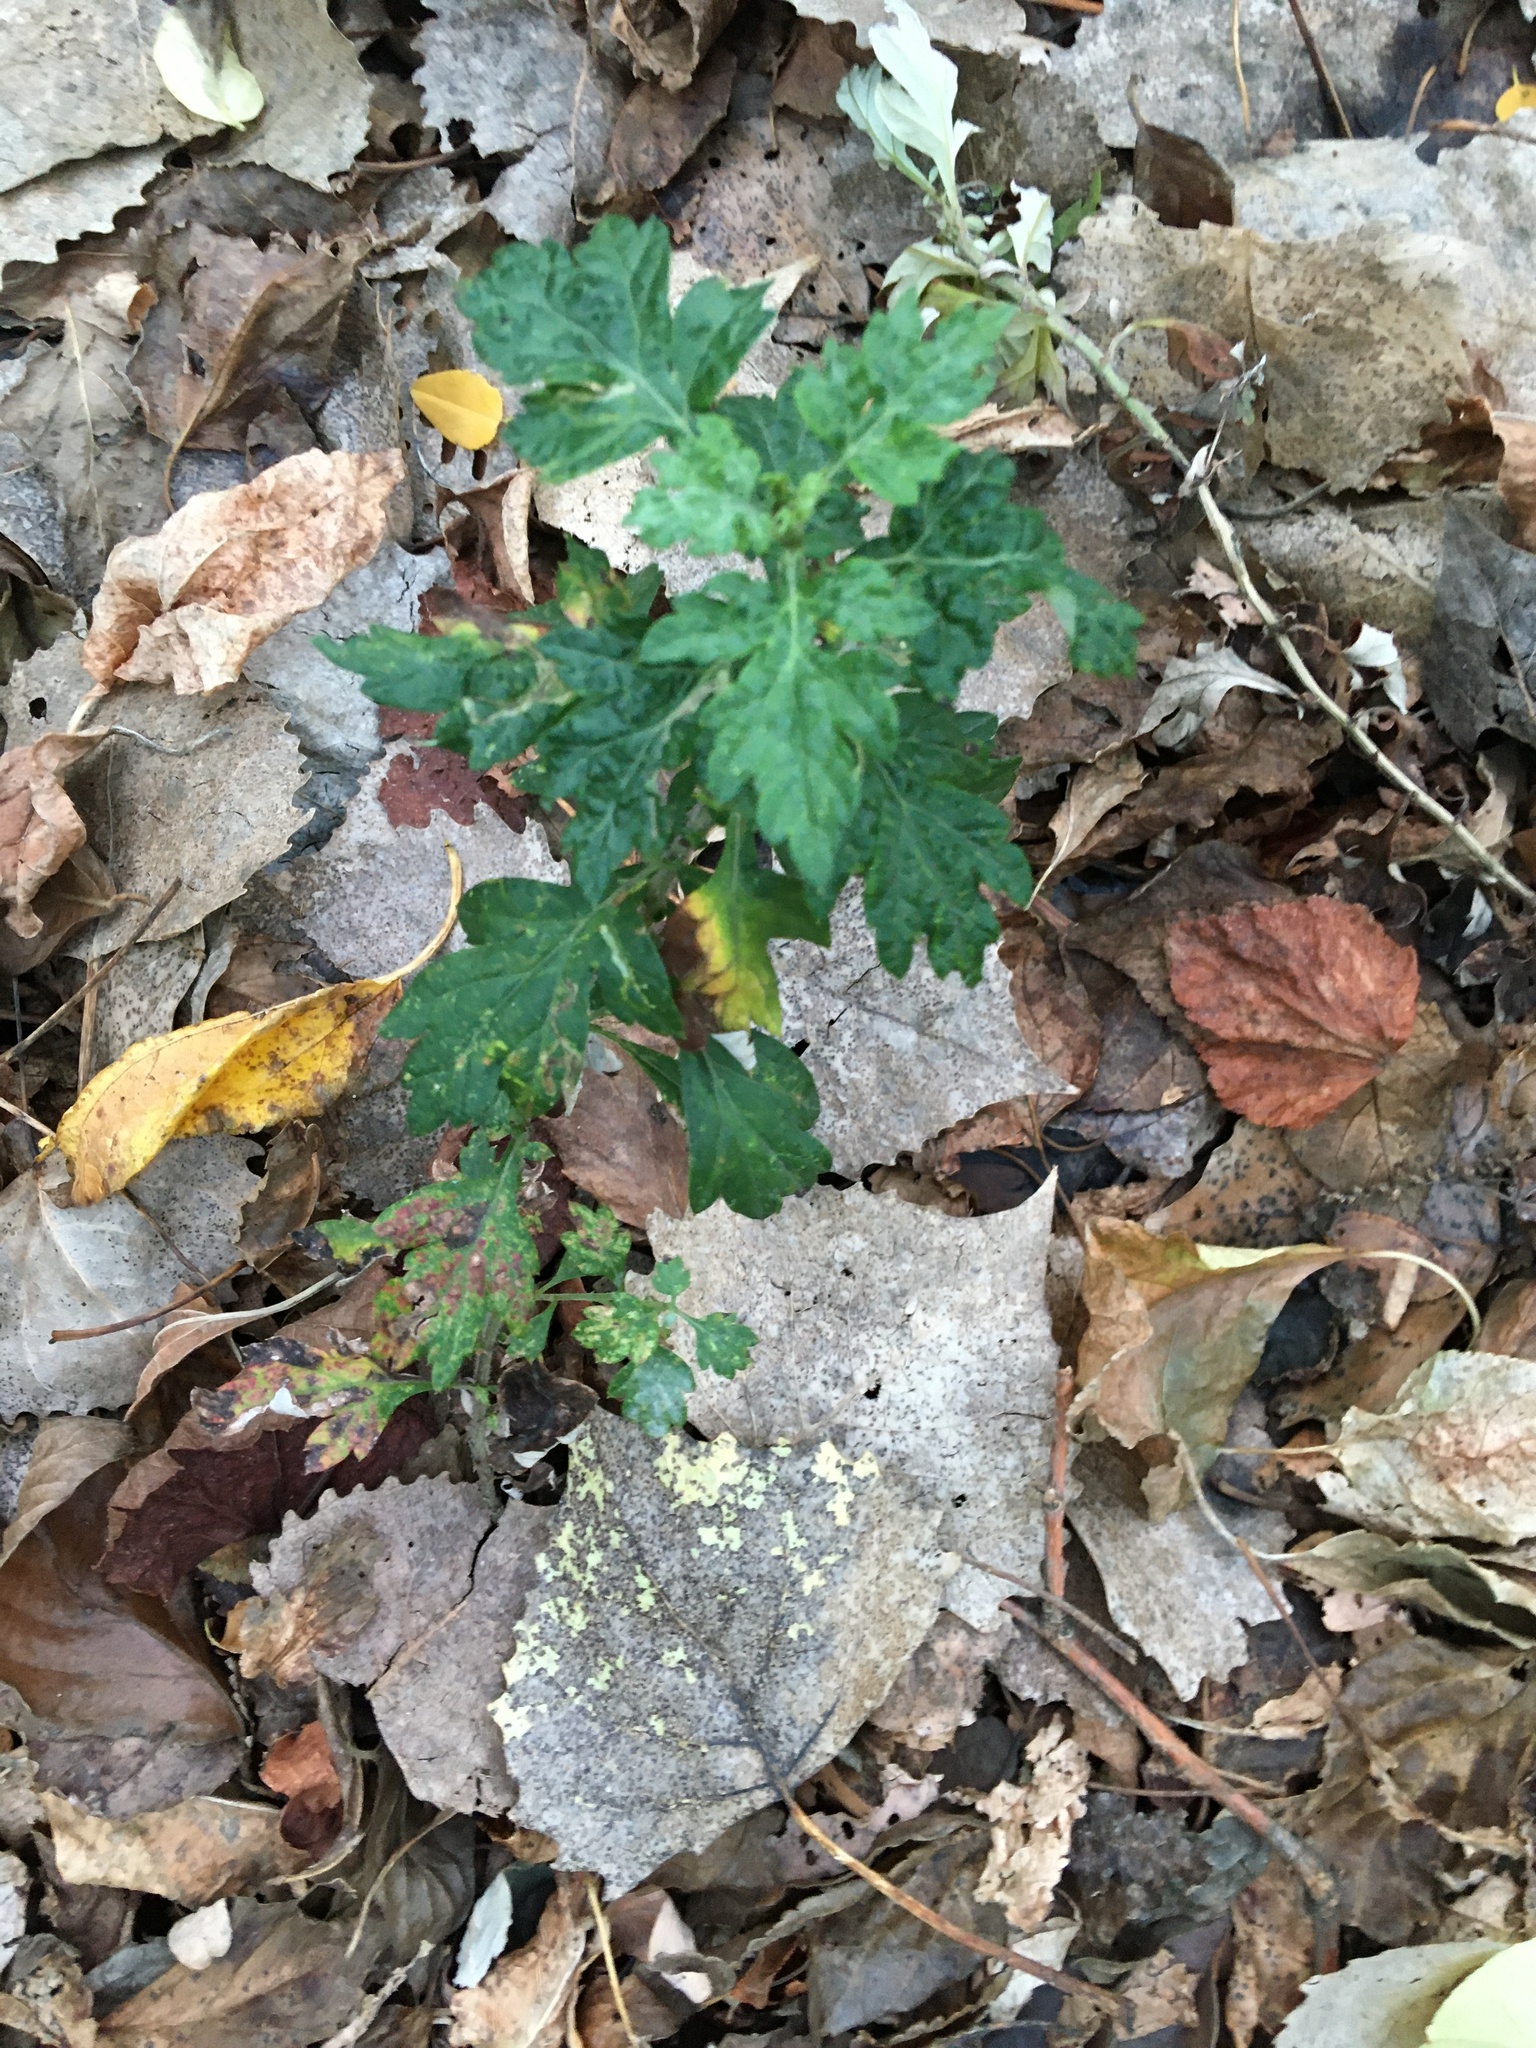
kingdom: Plantae
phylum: Tracheophyta
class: Magnoliopsida
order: Asterales
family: Asteraceae
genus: Artemisia
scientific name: Artemisia vulgaris
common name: Mugwort
